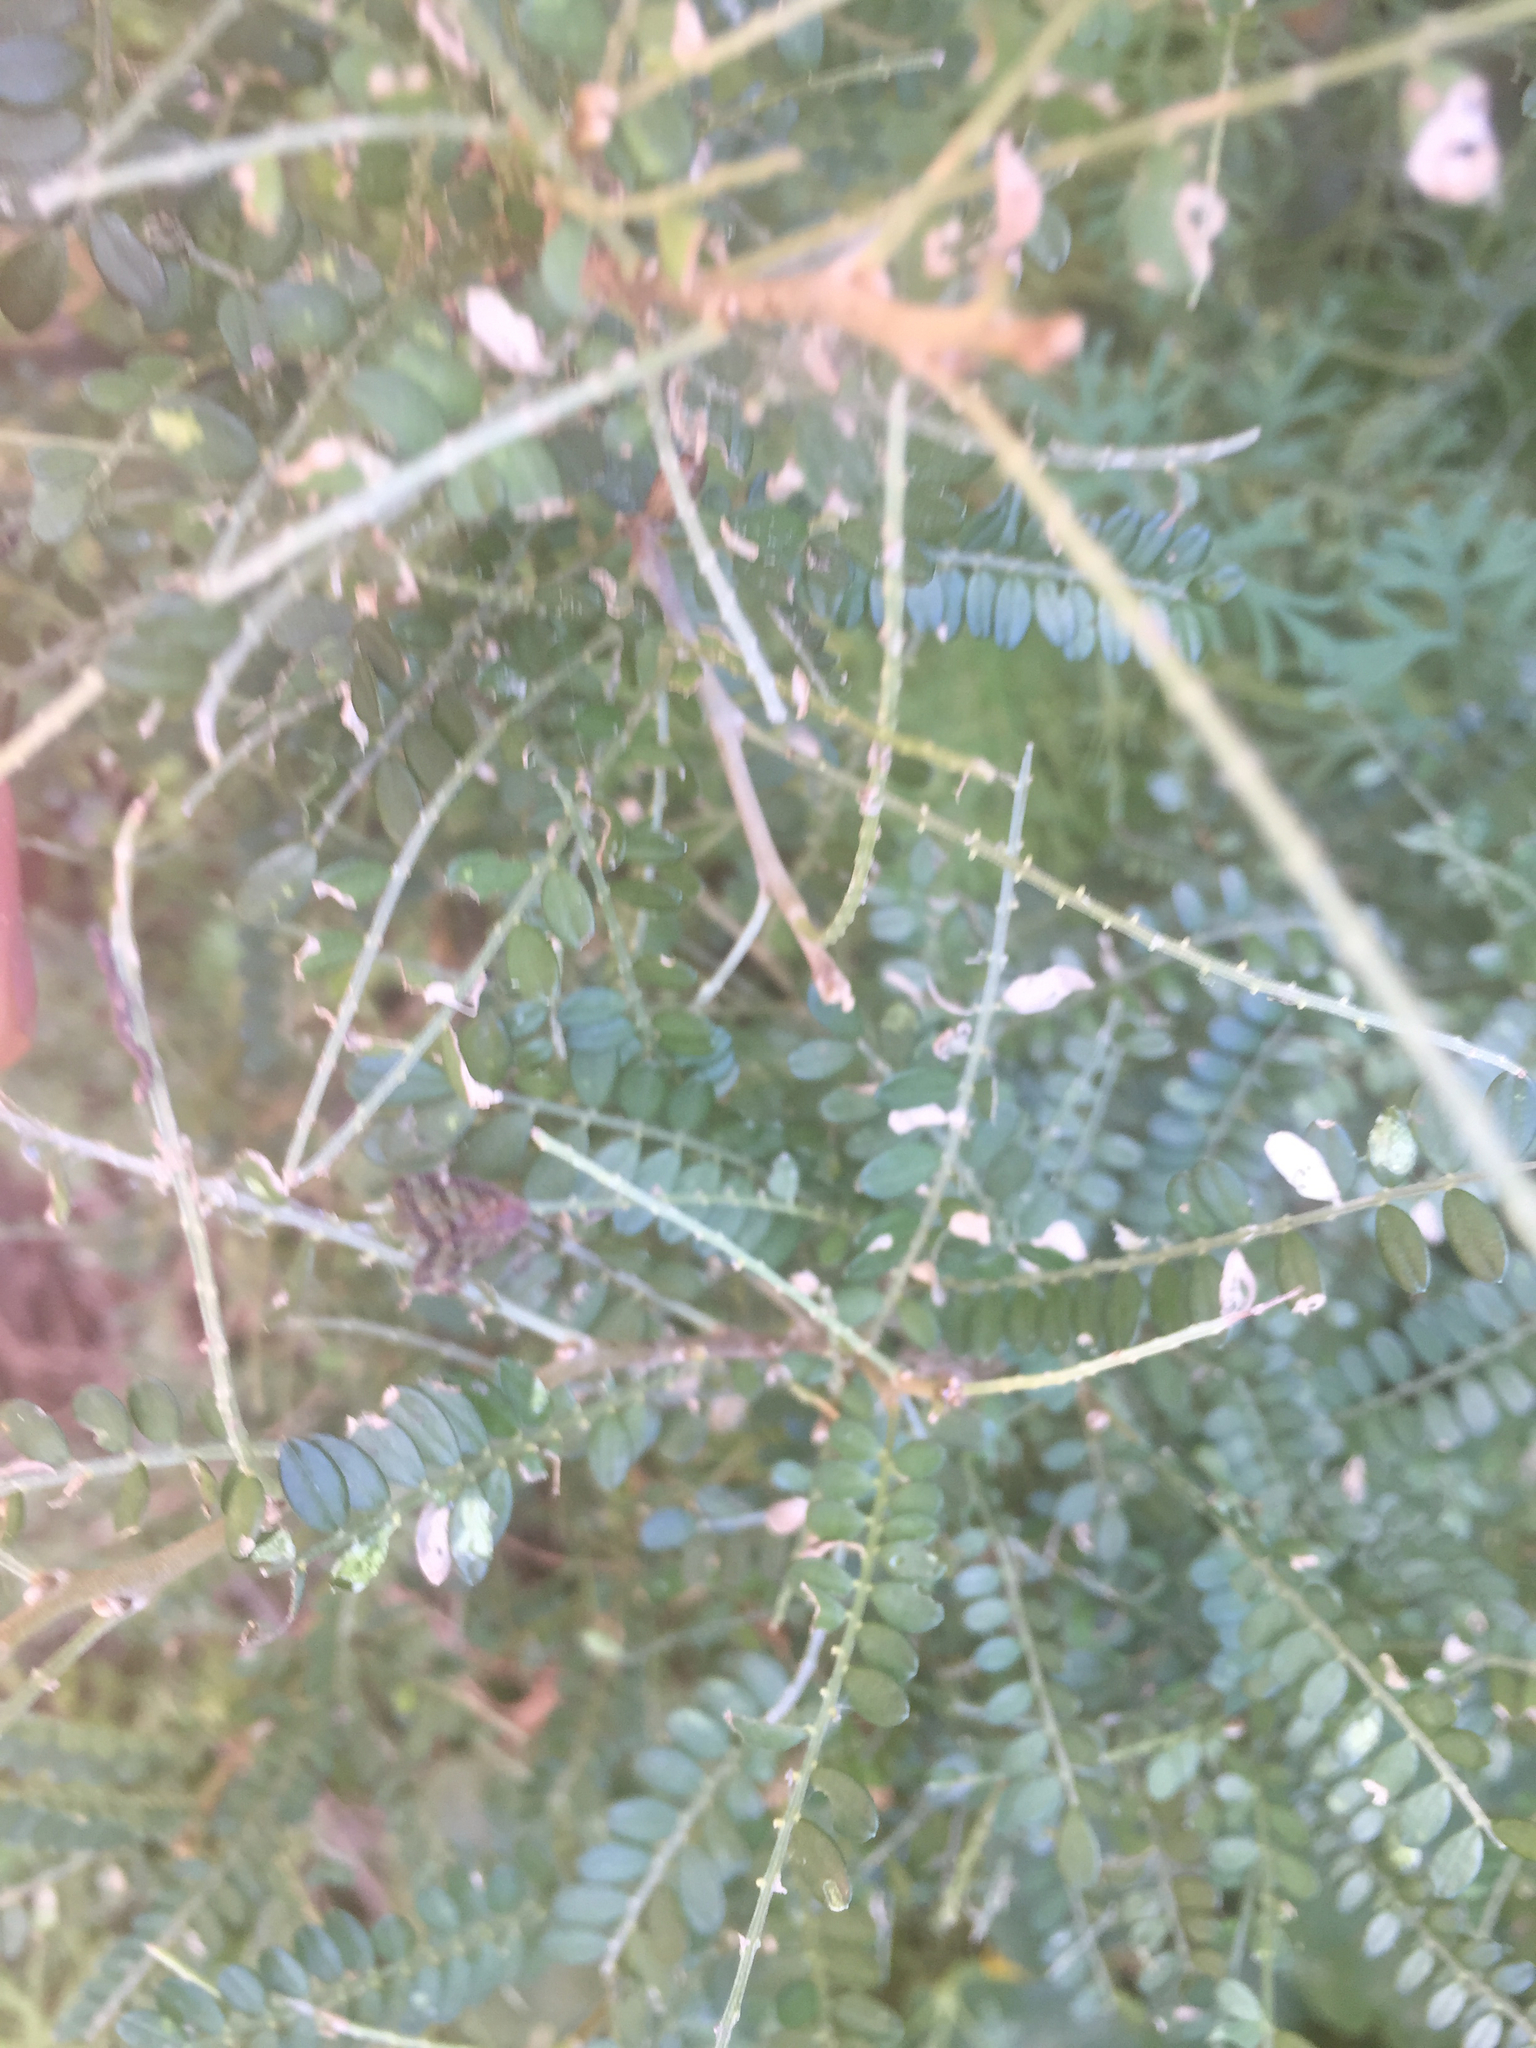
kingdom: Animalia
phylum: Arthropoda
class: Insecta
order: Hemiptera
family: Ricaniidae
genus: Scolypopa
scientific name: Scolypopa australis
